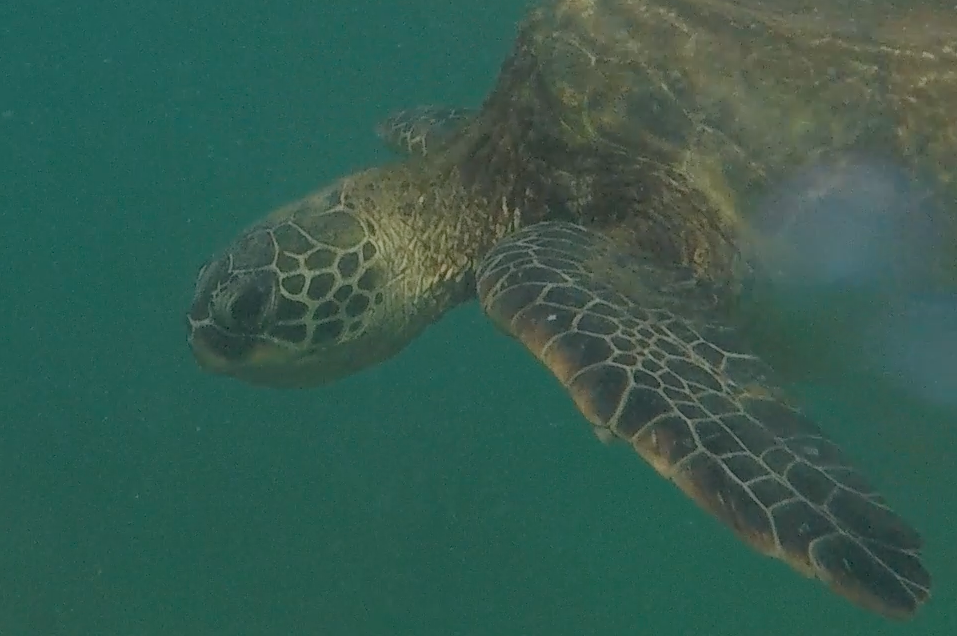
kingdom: Animalia
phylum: Chordata
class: Testudines
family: Cheloniidae
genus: Chelonia
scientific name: Chelonia mydas
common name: Green turtle
